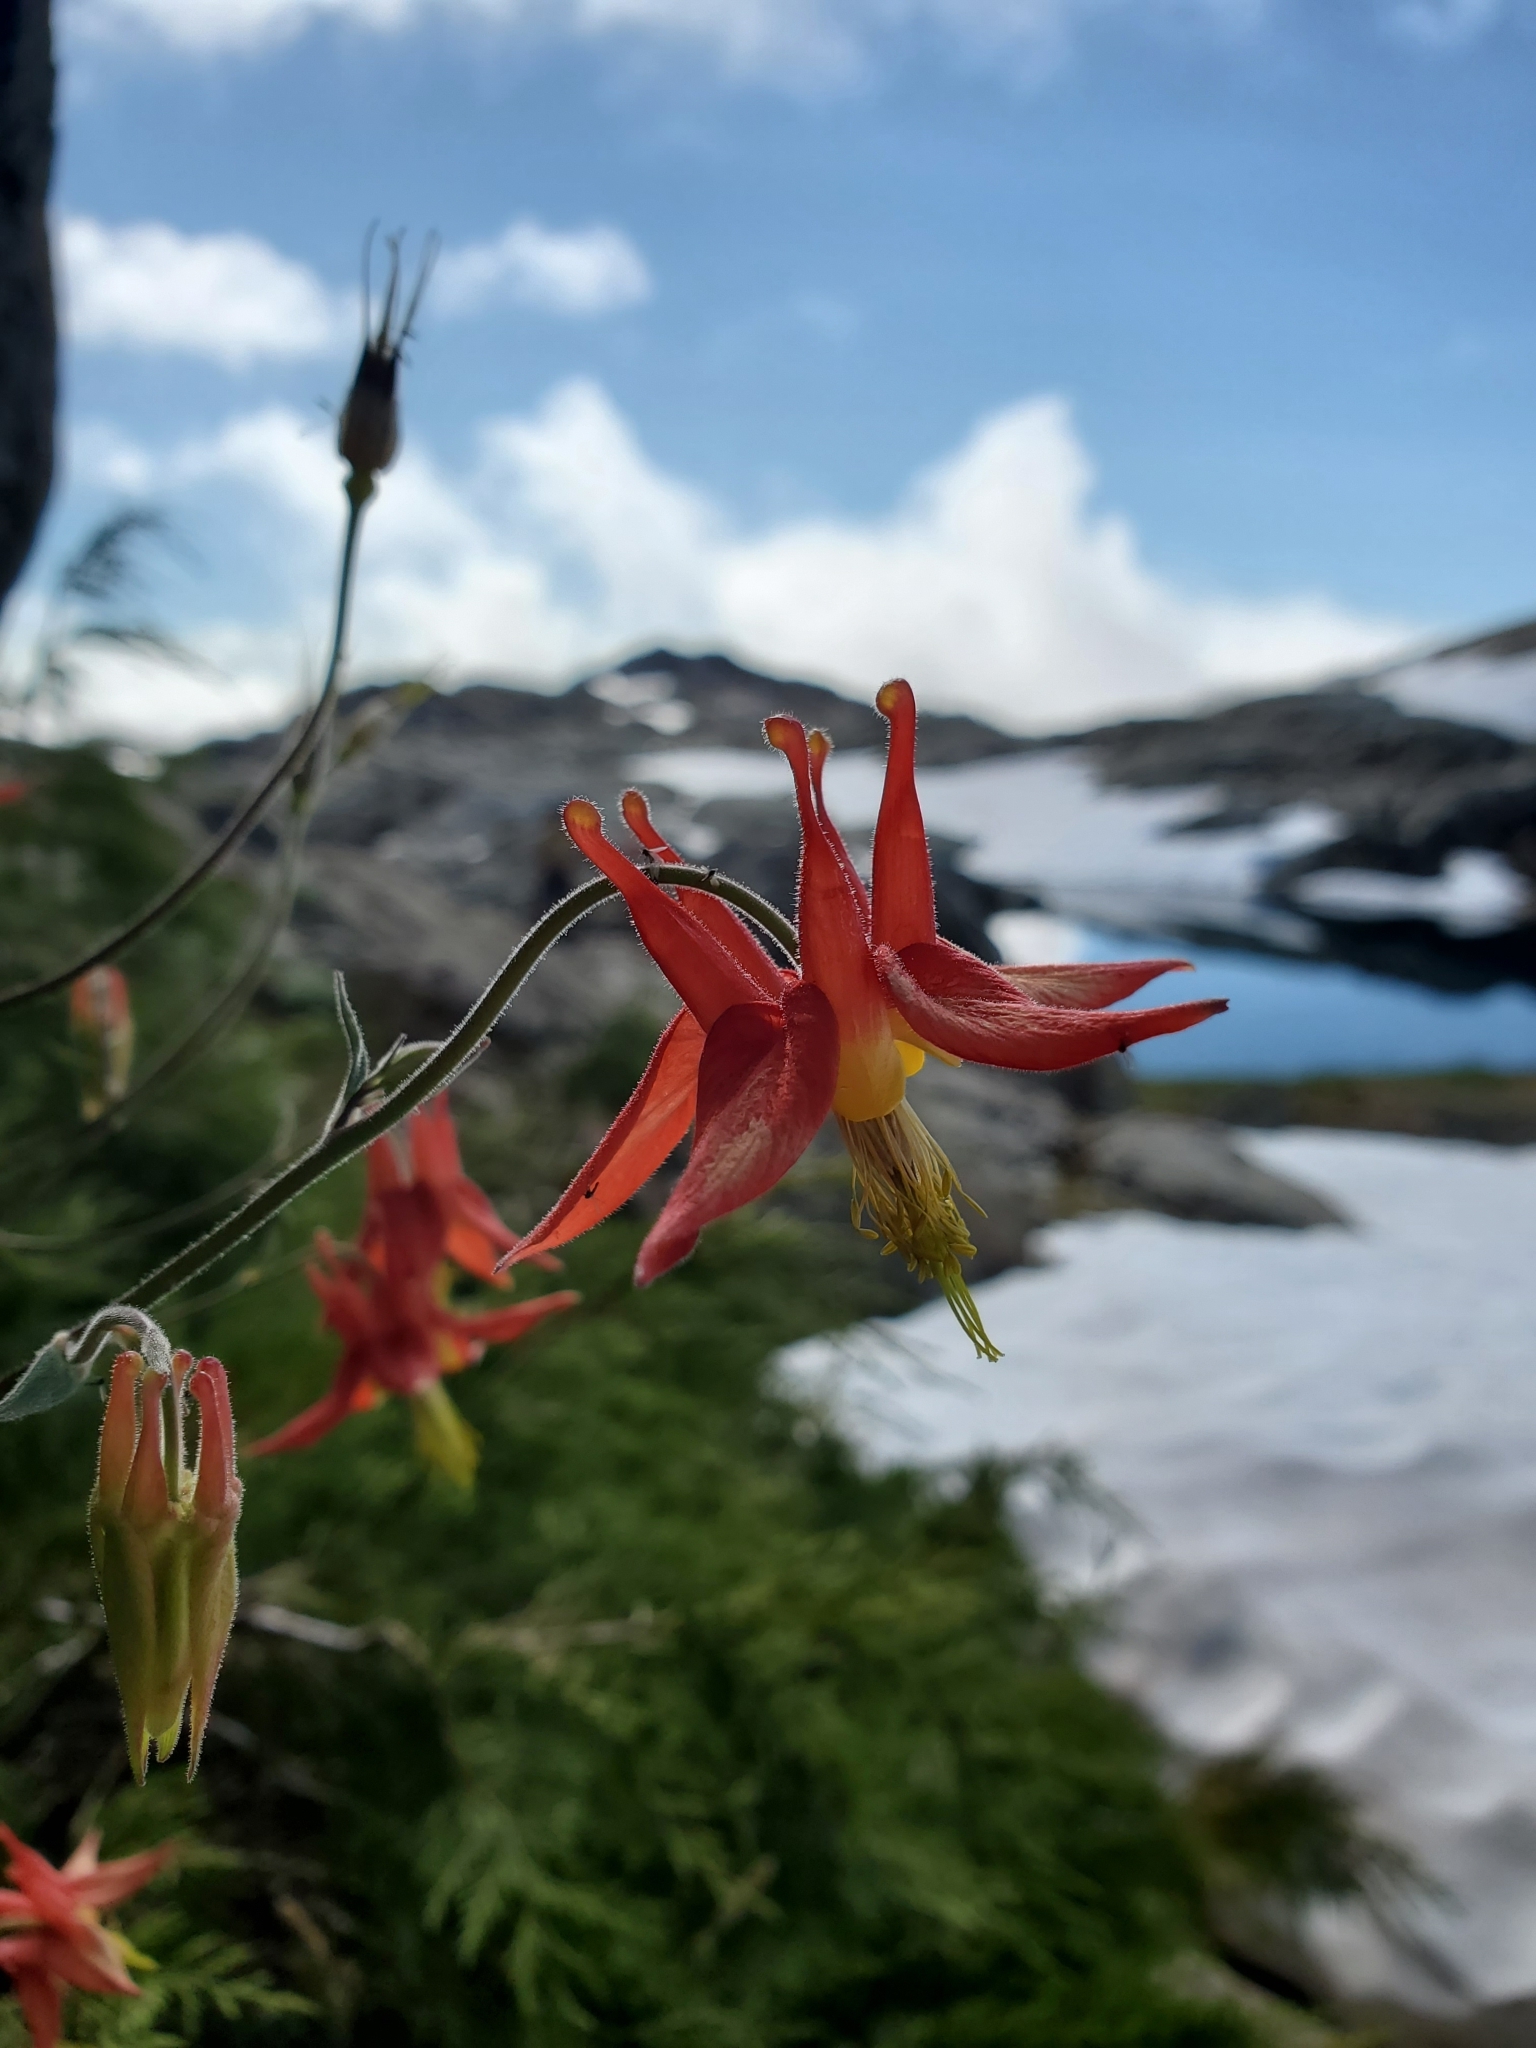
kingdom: Plantae
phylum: Tracheophyta
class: Magnoliopsida
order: Ranunculales
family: Ranunculaceae
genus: Aquilegia
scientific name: Aquilegia formosa
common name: Sitka columbine
